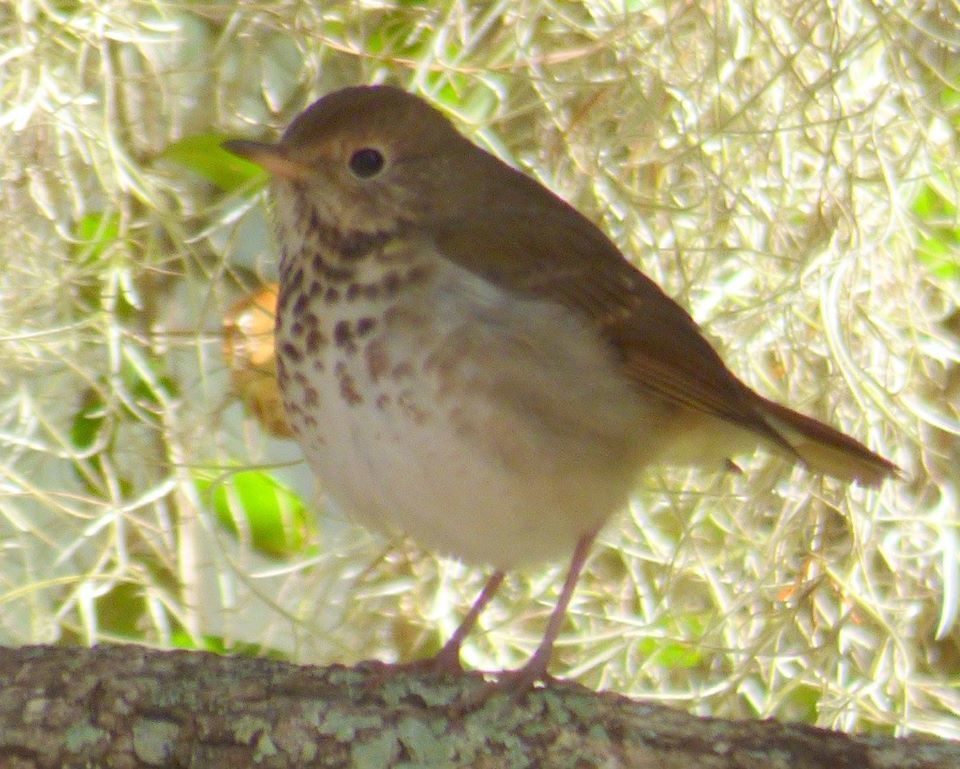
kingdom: Animalia
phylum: Chordata
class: Aves
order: Passeriformes
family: Turdidae
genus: Catharus
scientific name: Catharus guttatus
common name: Hermit thrush
